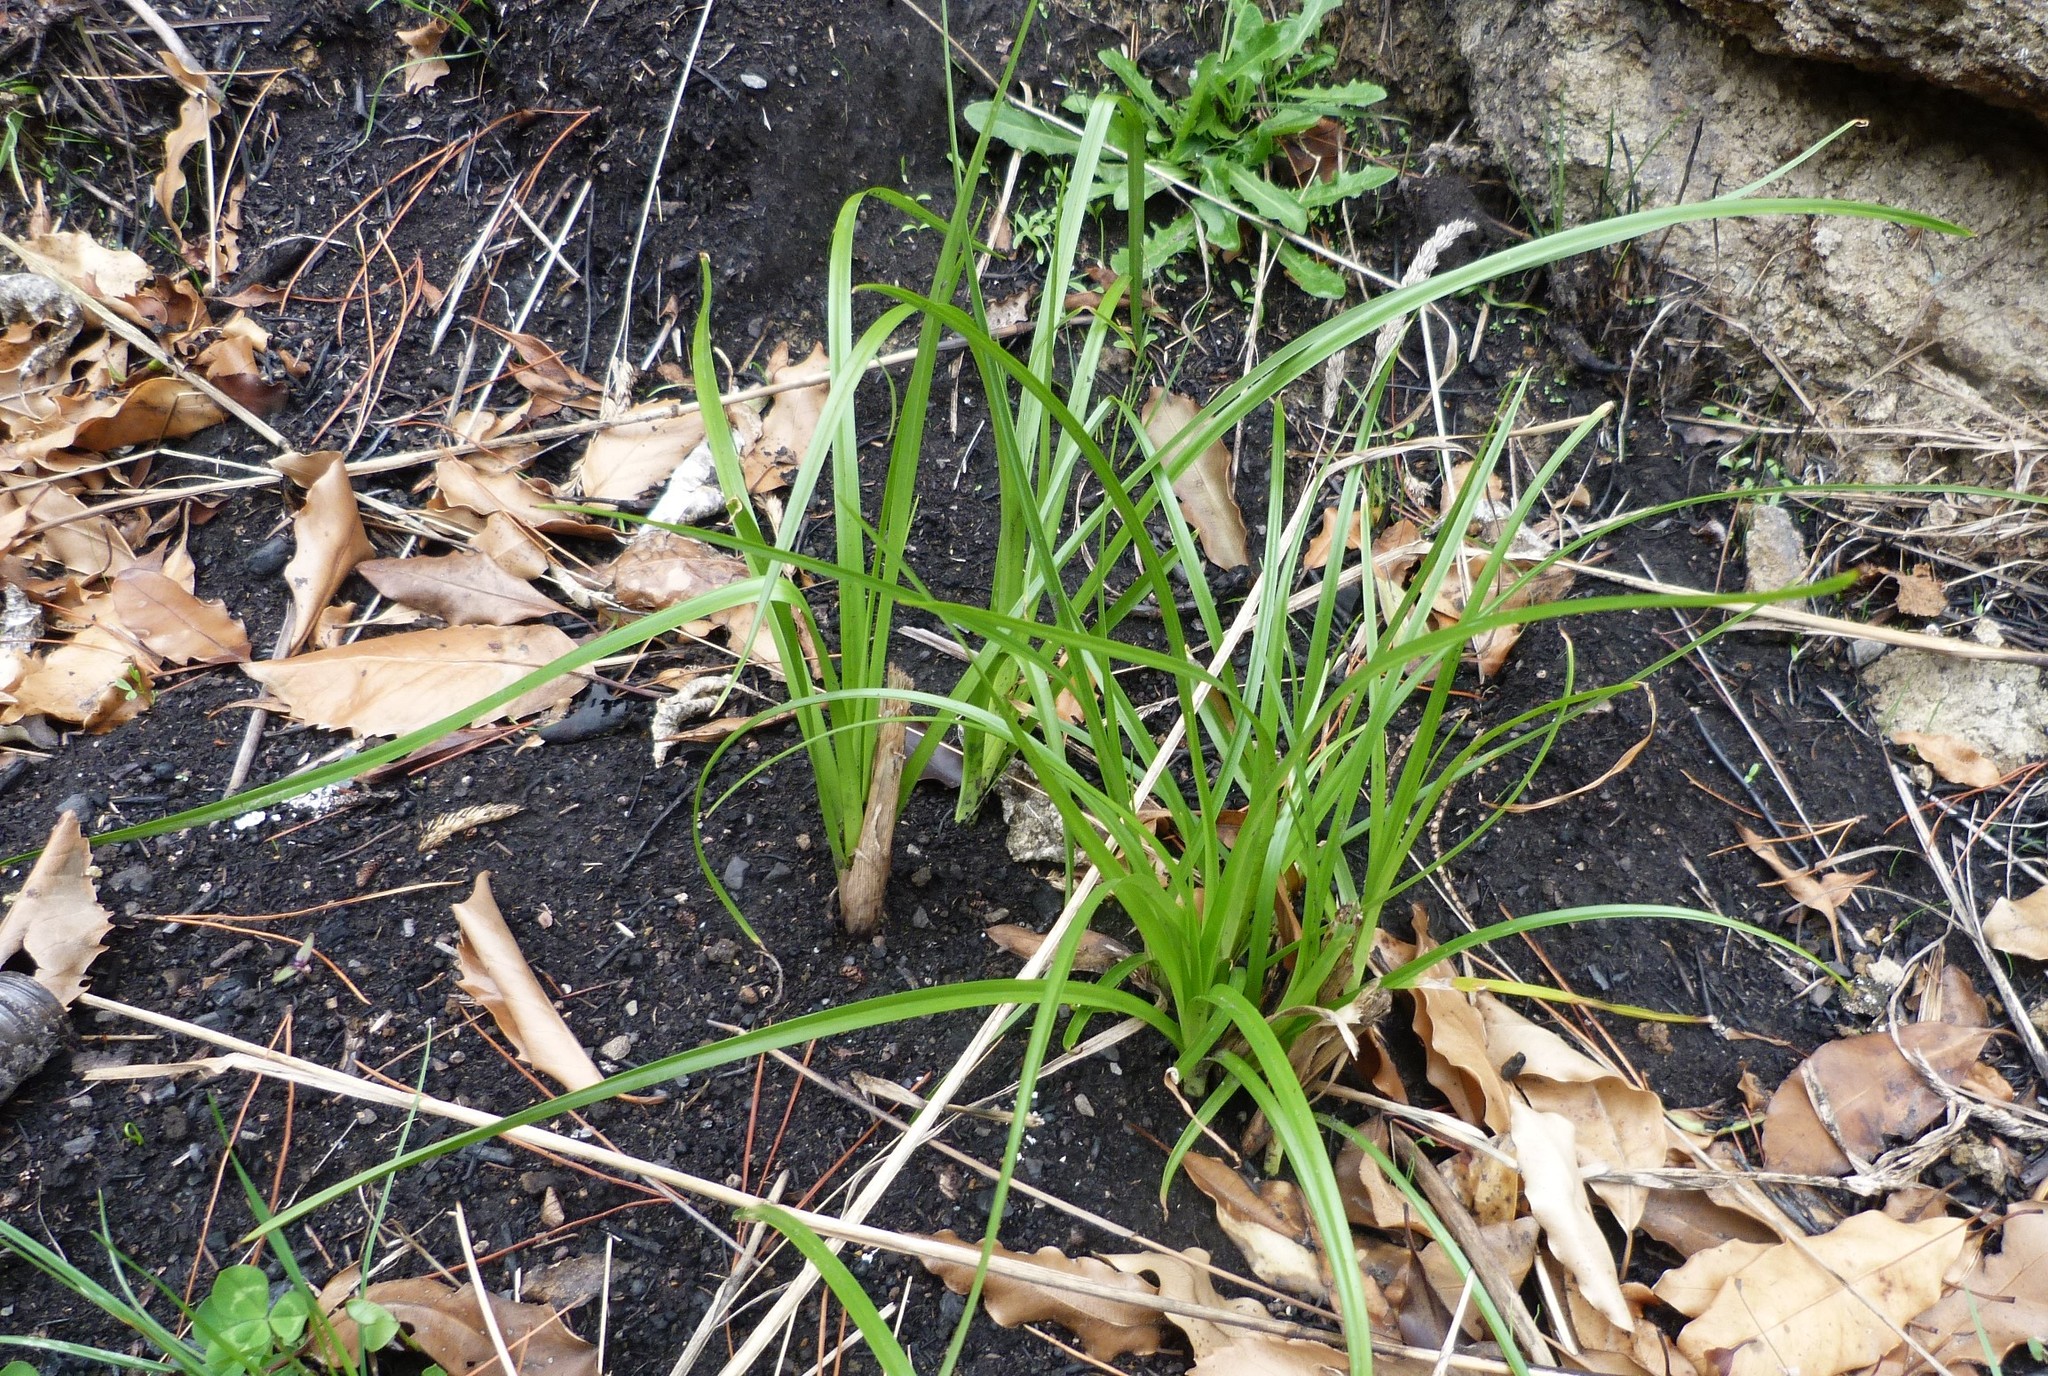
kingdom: Plantae
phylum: Tracheophyta
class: Liliopsida
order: Poales
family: Cyperaceae
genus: Cyperus
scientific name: Cyperus eragrostis
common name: Tall flatsedge
